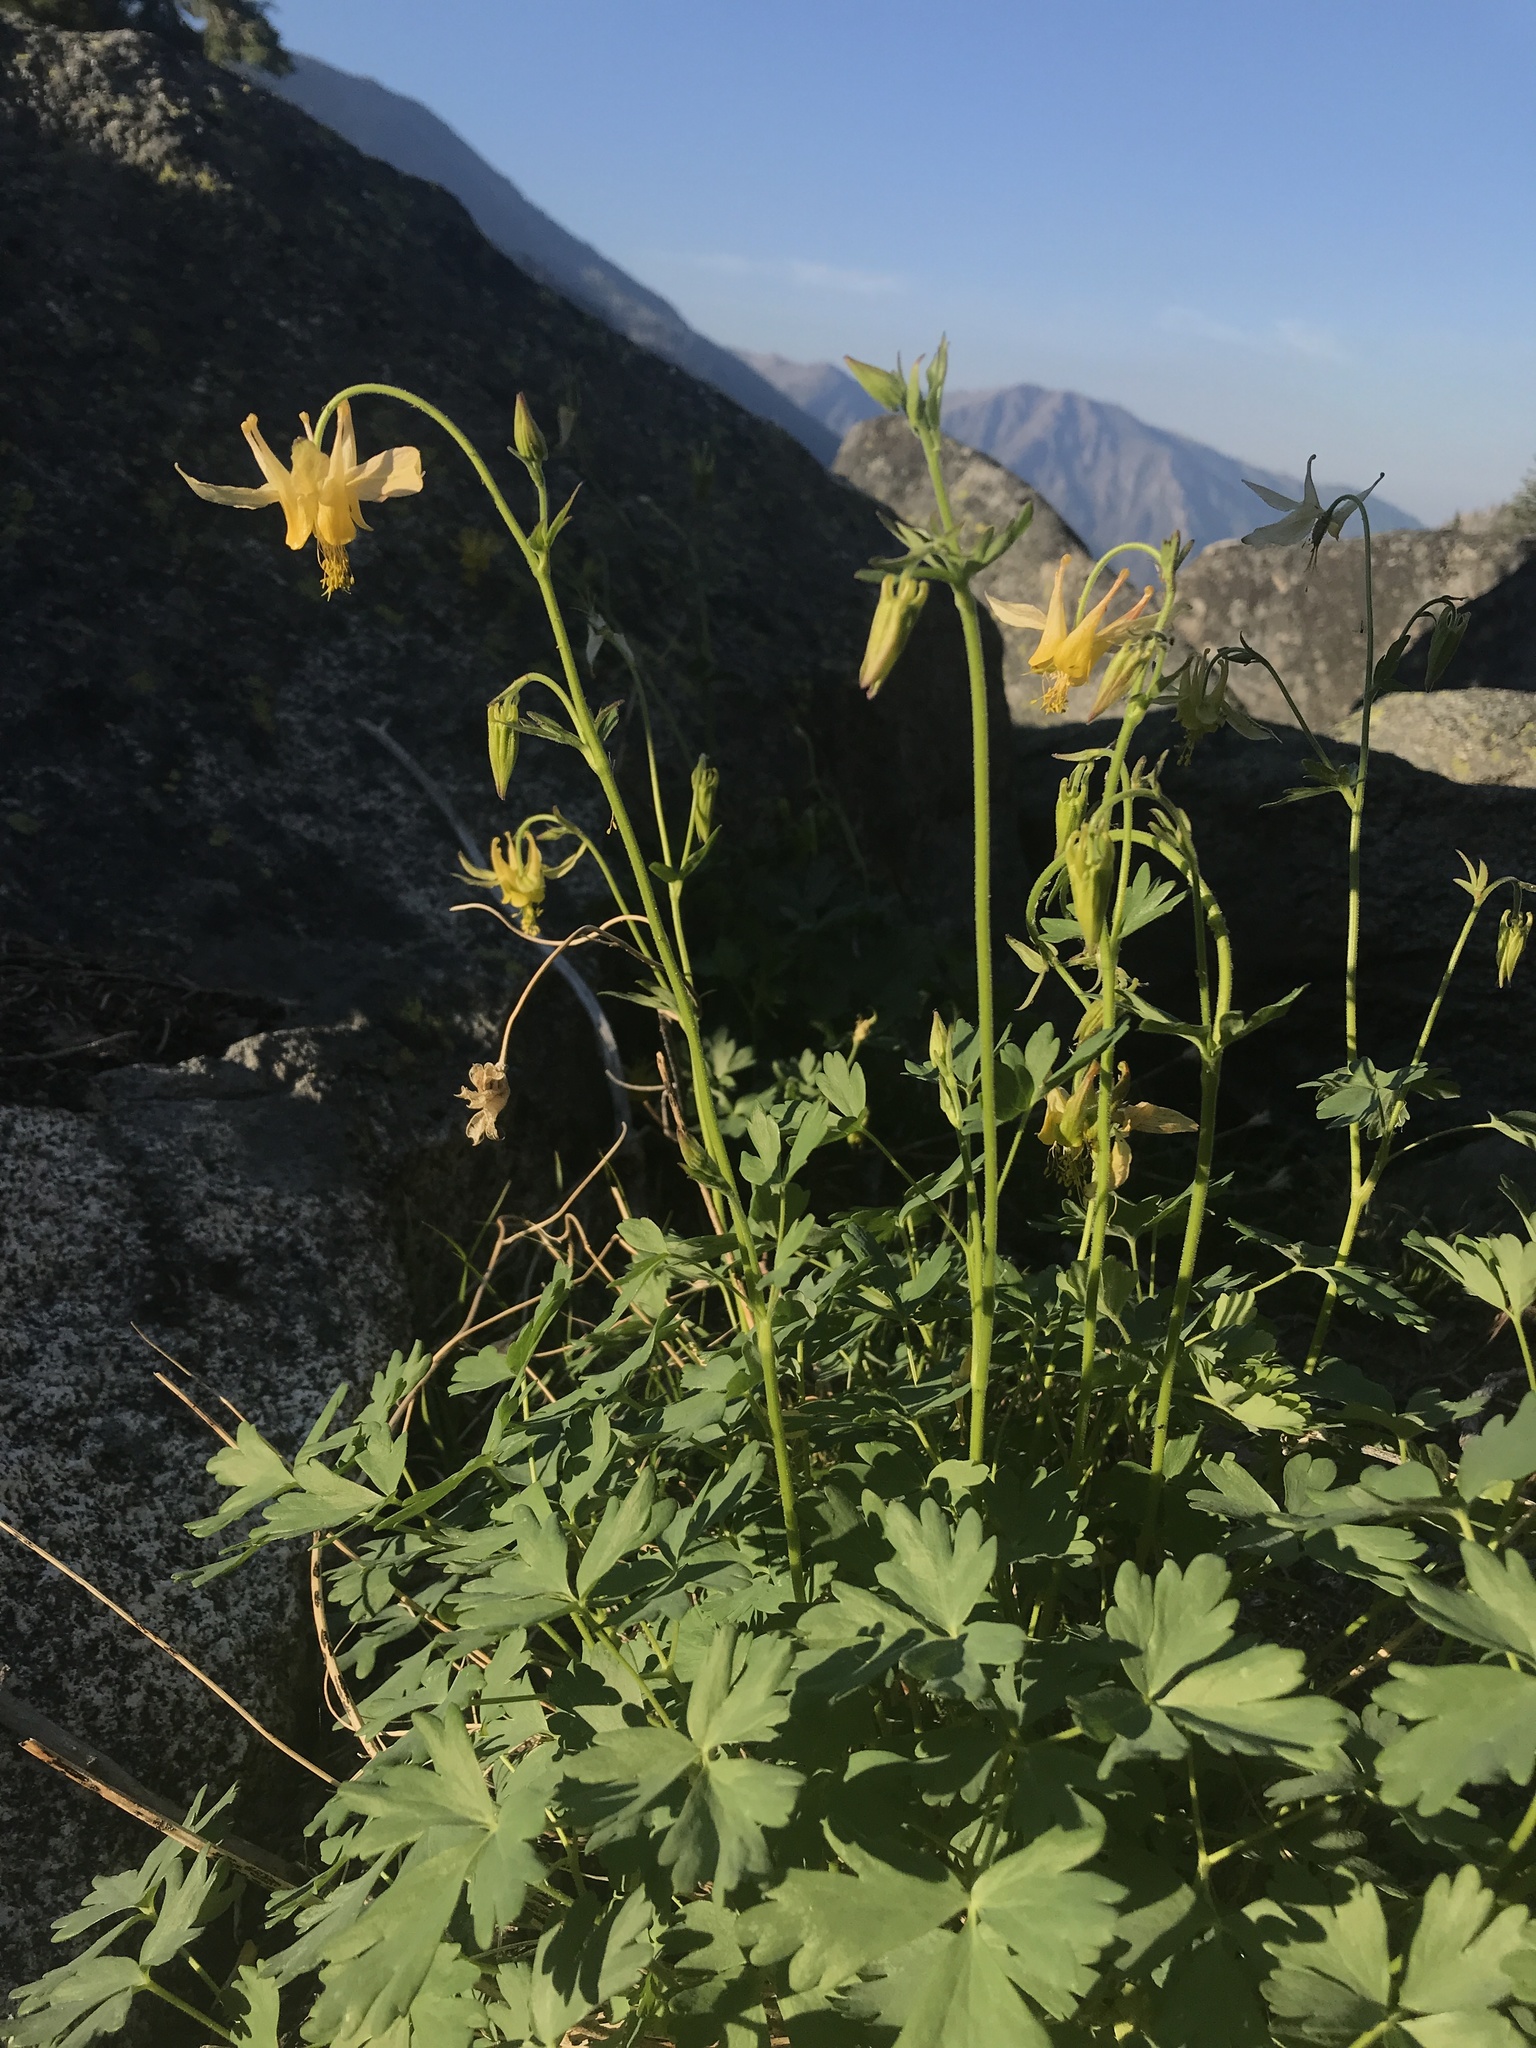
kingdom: Plantae
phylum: Tracheophyta
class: Magnoliopsida
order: Ranunculales
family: Ranunculaceae
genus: Aquilegia
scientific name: Aquilegia flavescens
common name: Yellow columbine
